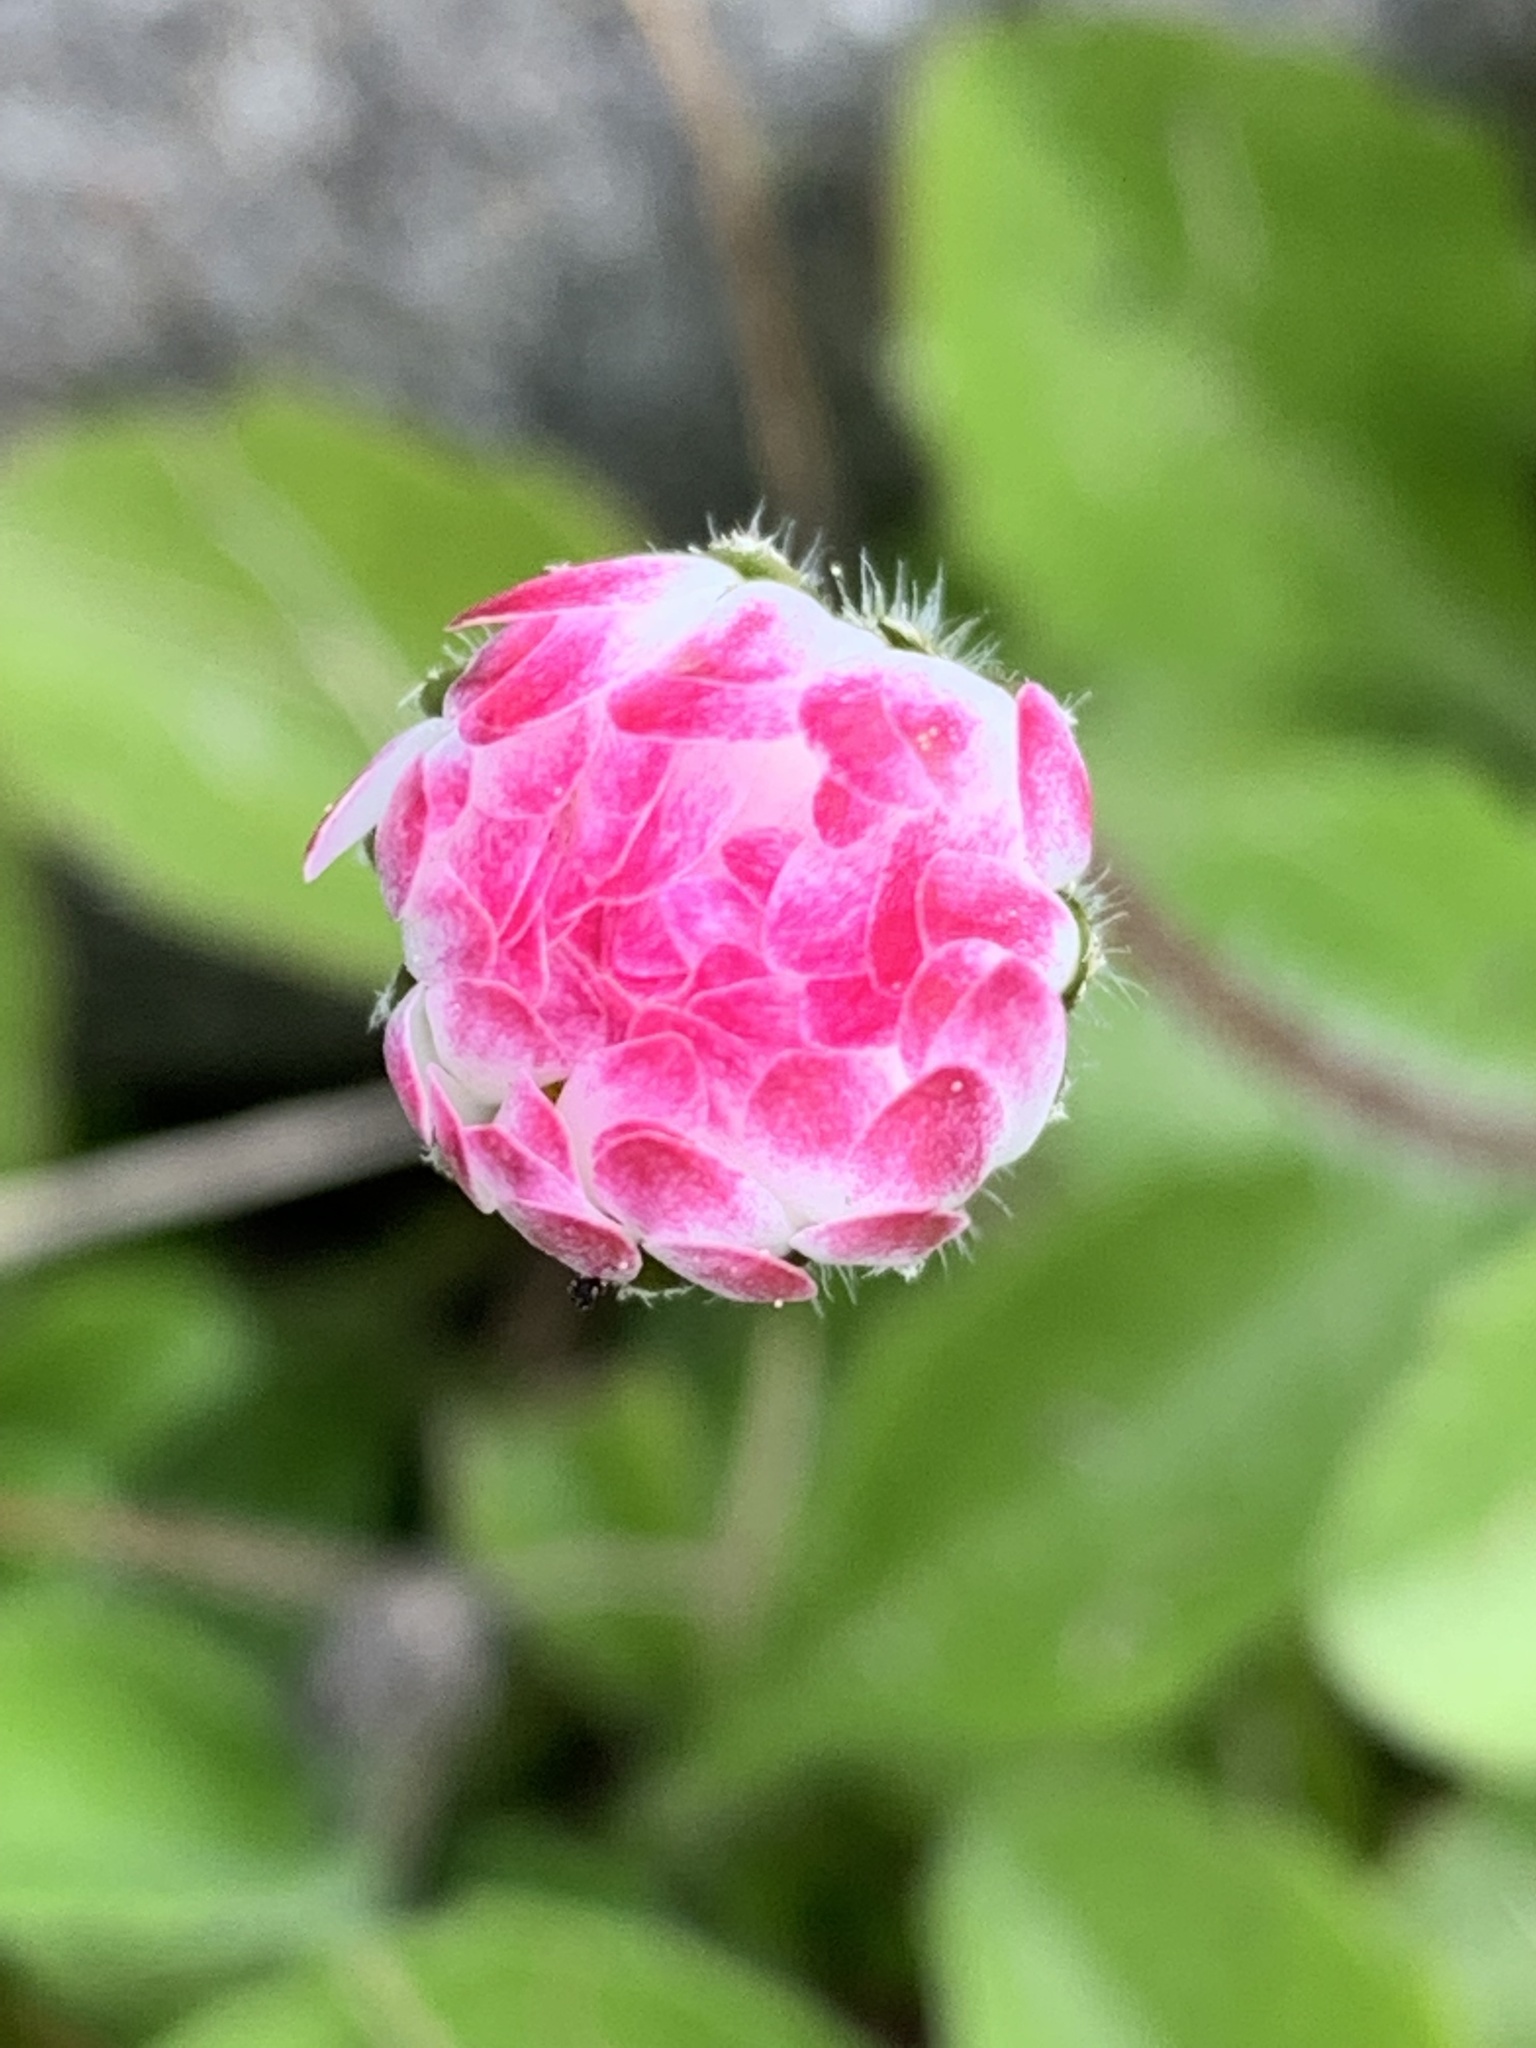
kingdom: Plantae
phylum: Tracheophyta
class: Magnoliopsida
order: Asterales
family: Asteraceae
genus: Bellis
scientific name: Bellis perennis
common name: Lawndaisy
